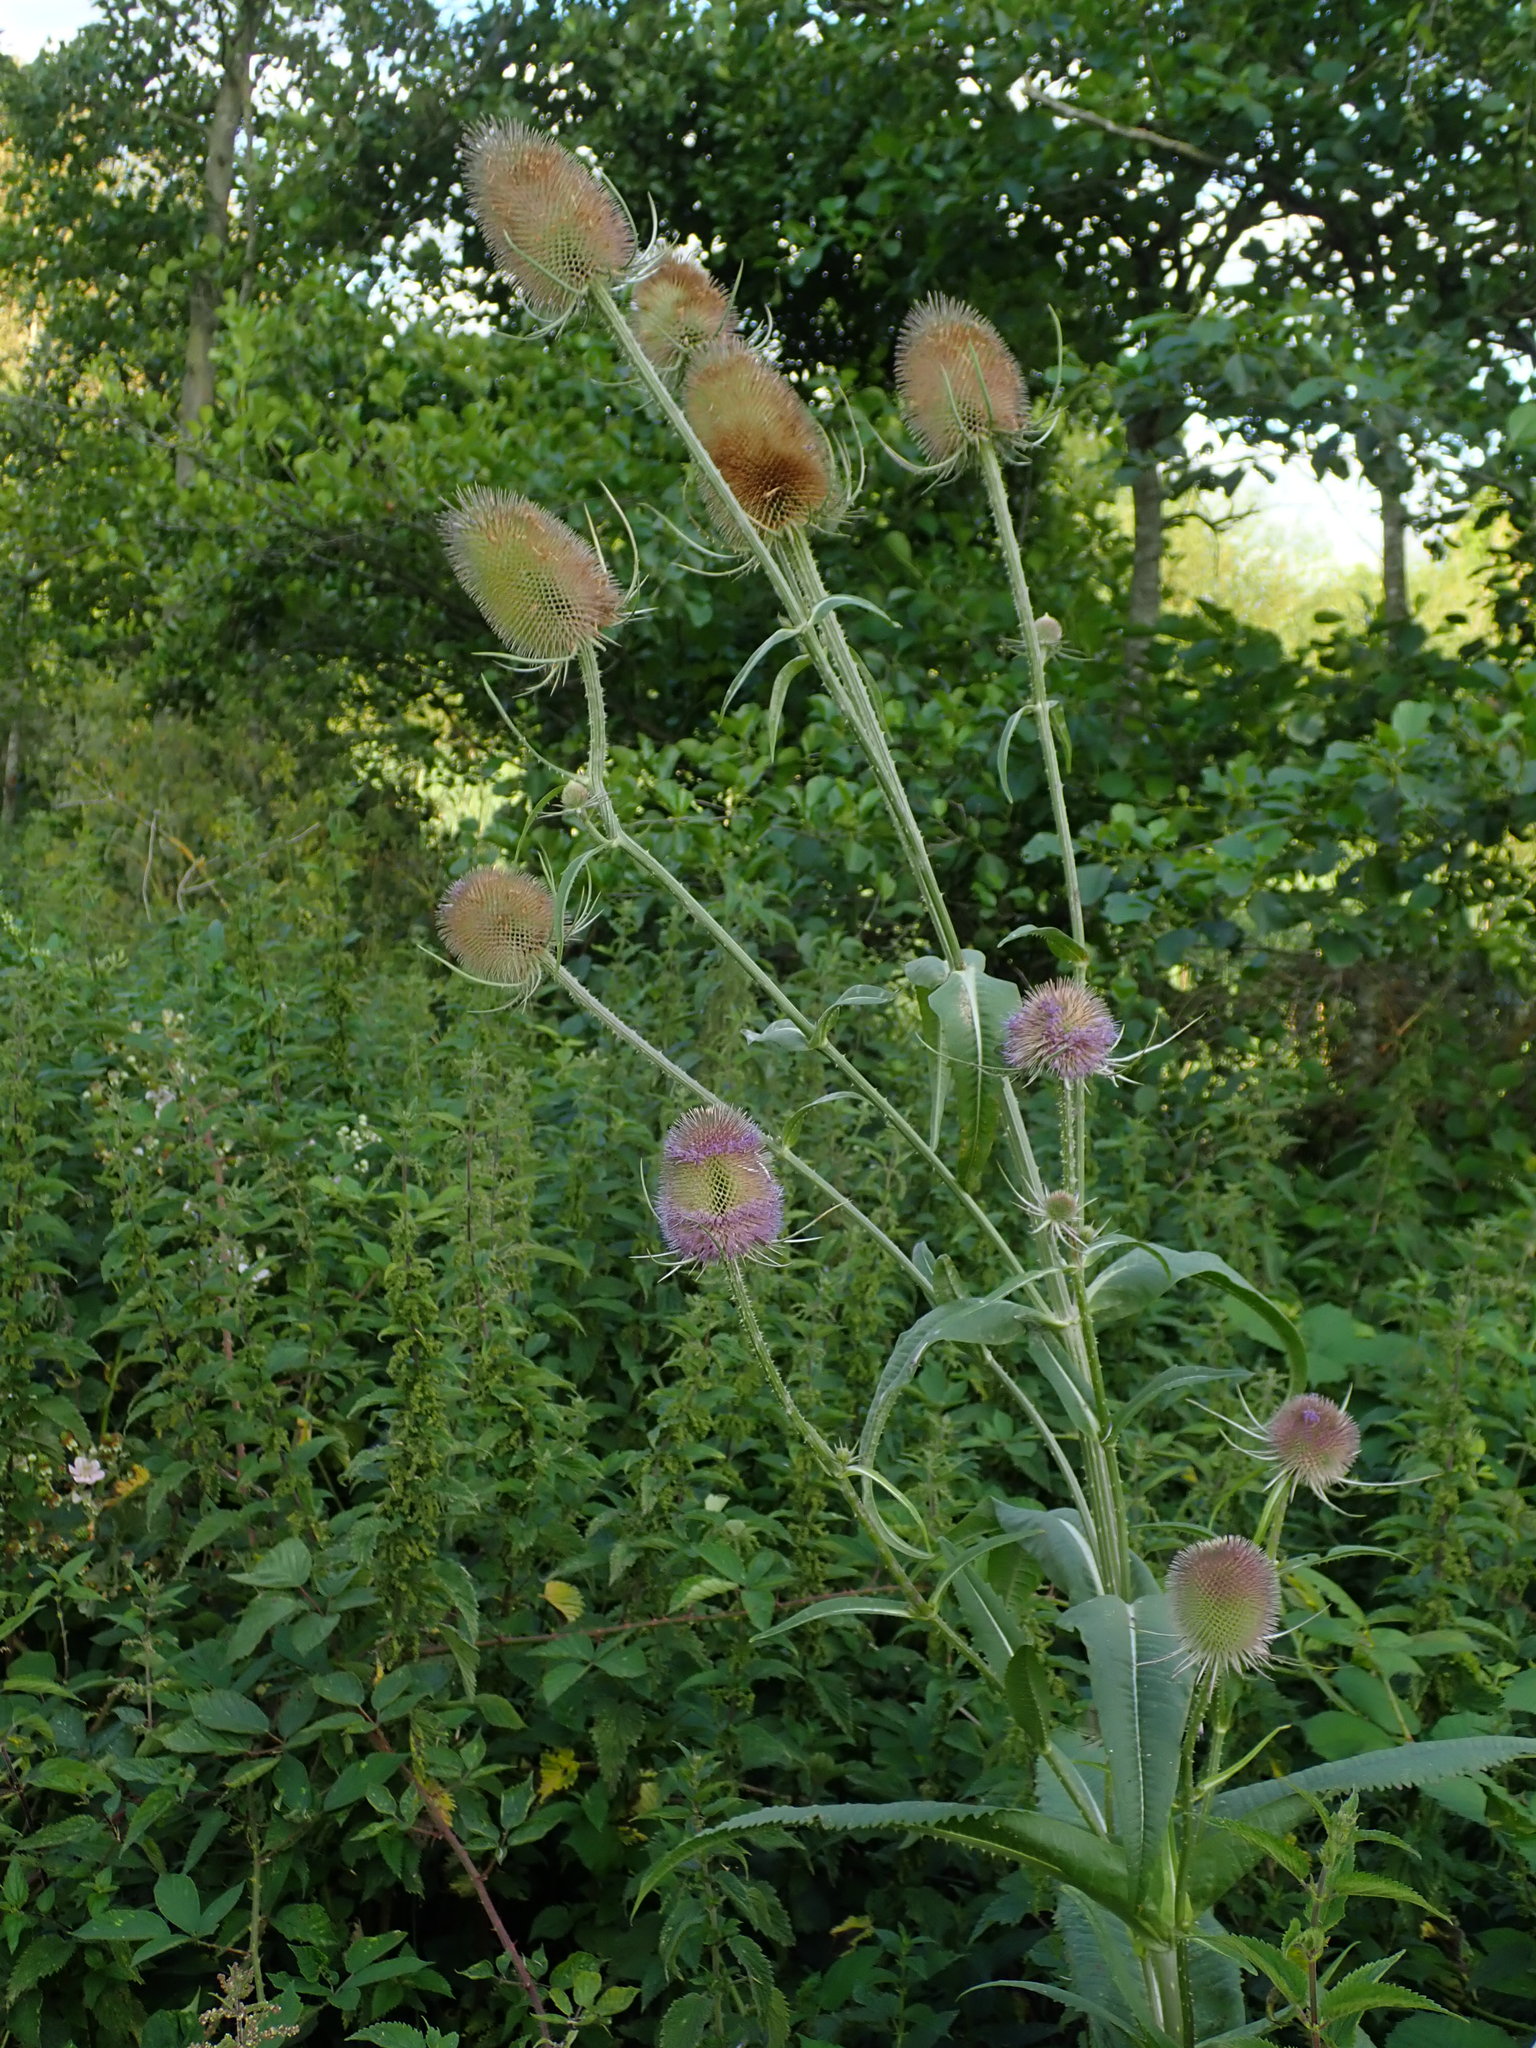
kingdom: Plantae
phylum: Tracheophyta
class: Magnoliopsida
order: Dipsacales
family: Caprifoliaceae
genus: Dipsacus
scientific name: Dipsacus fullonum
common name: Teasel
